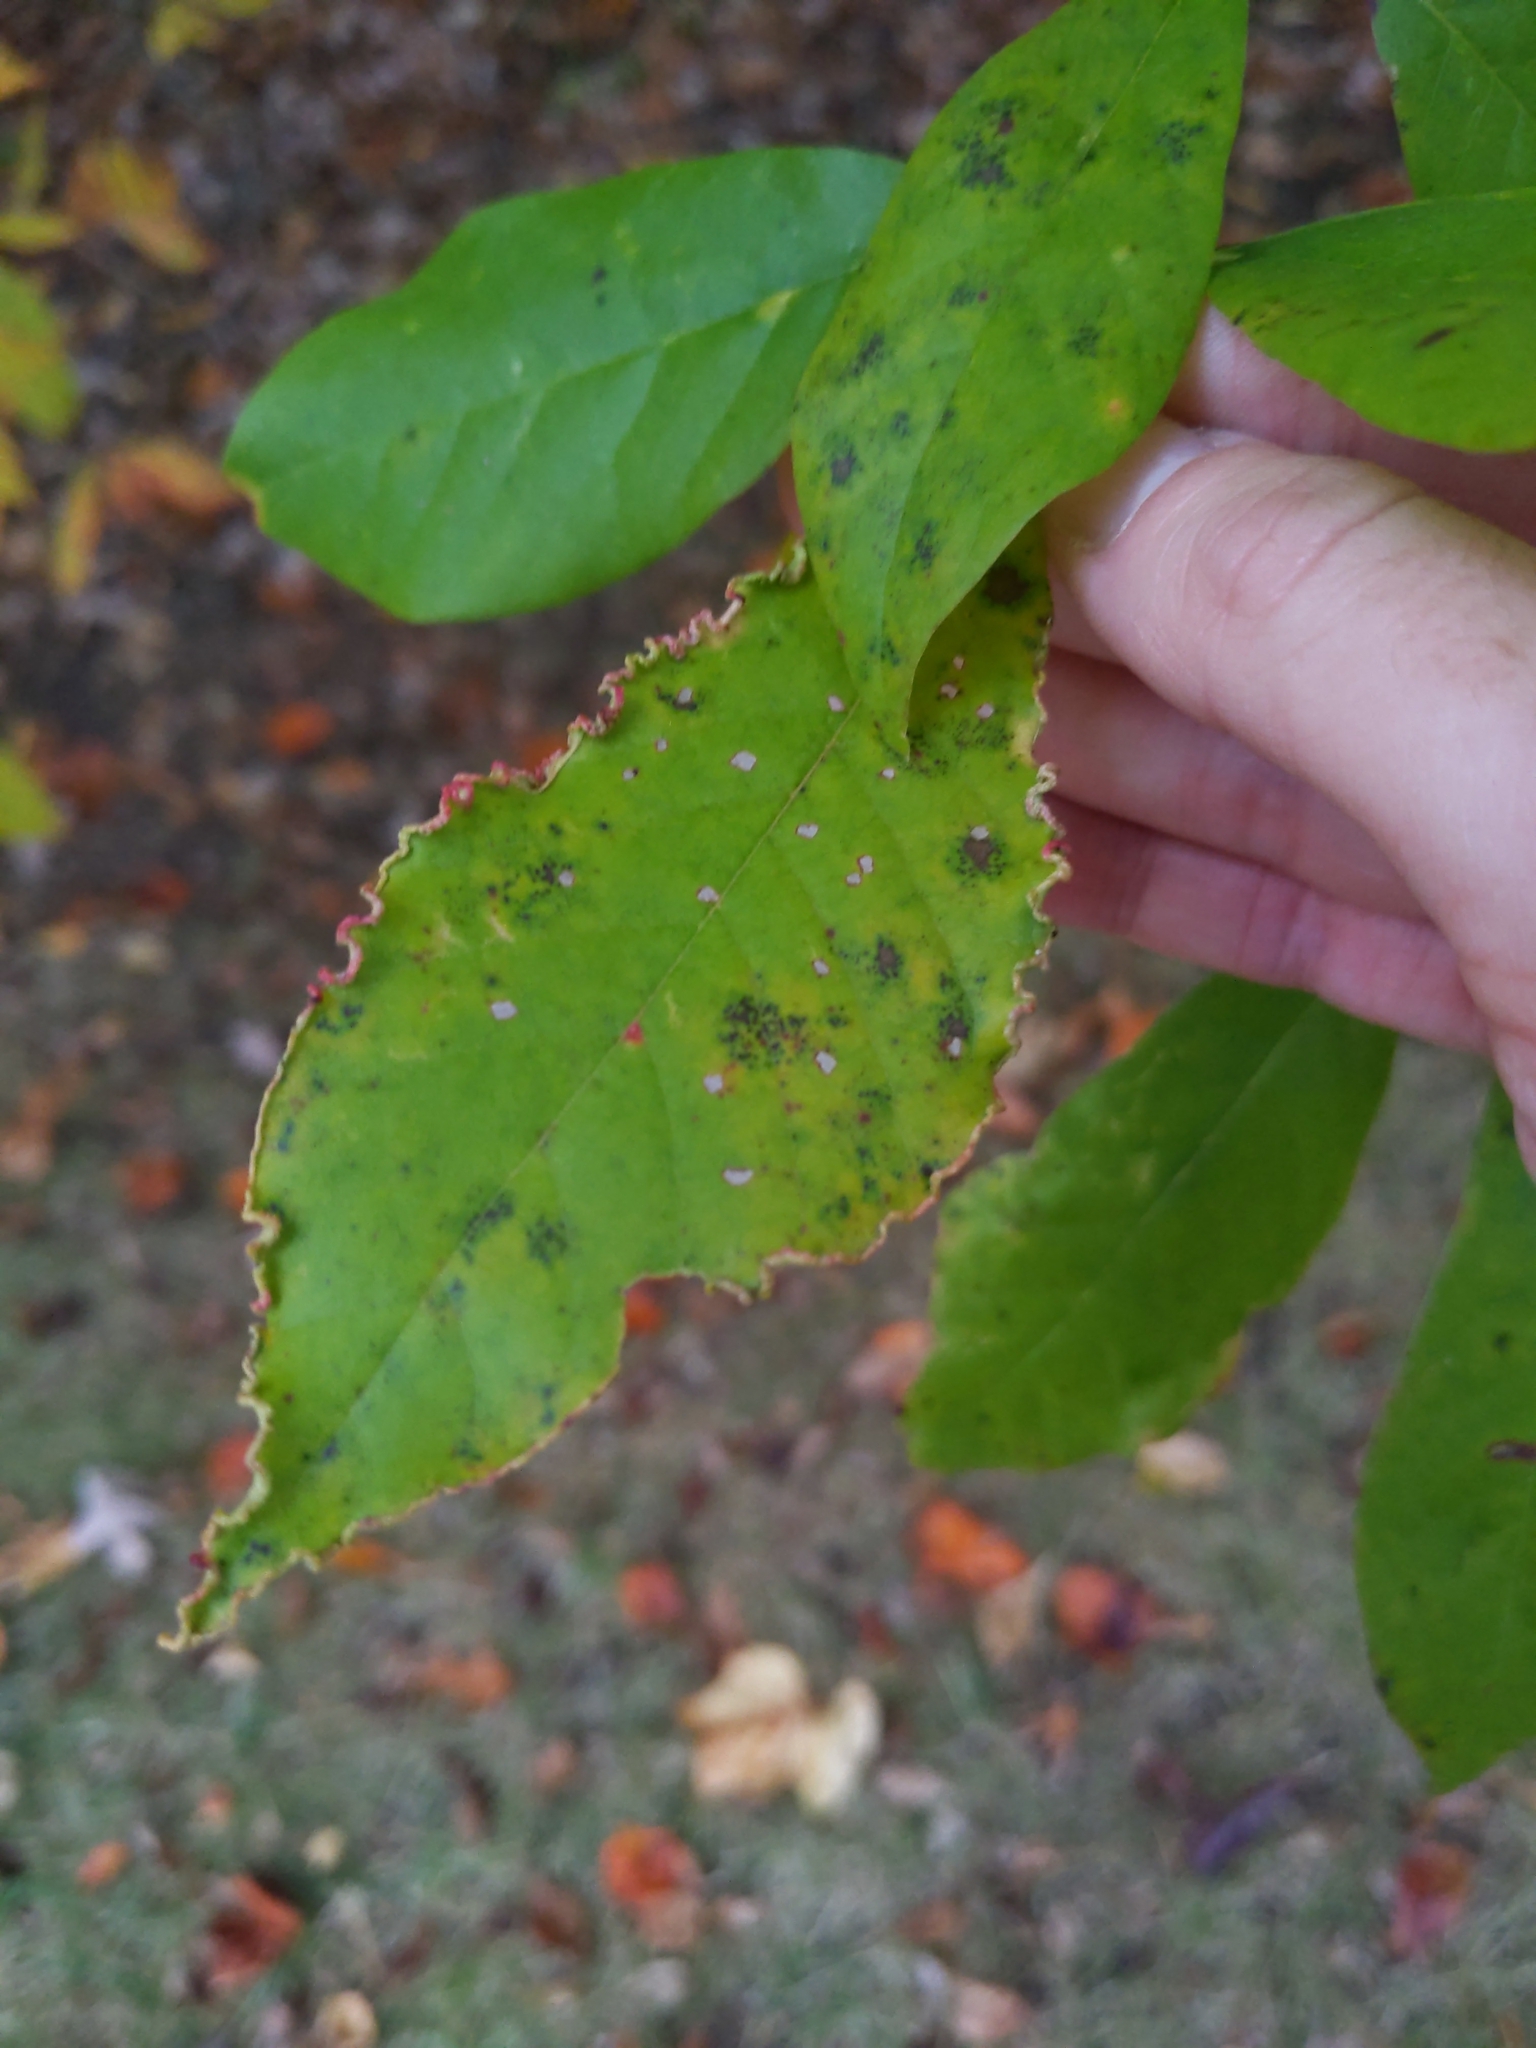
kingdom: Animalia
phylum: Arthropoda
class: Arachnida
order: Trombidiformes
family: Eriophyidae
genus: Aceria
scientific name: Aceria
